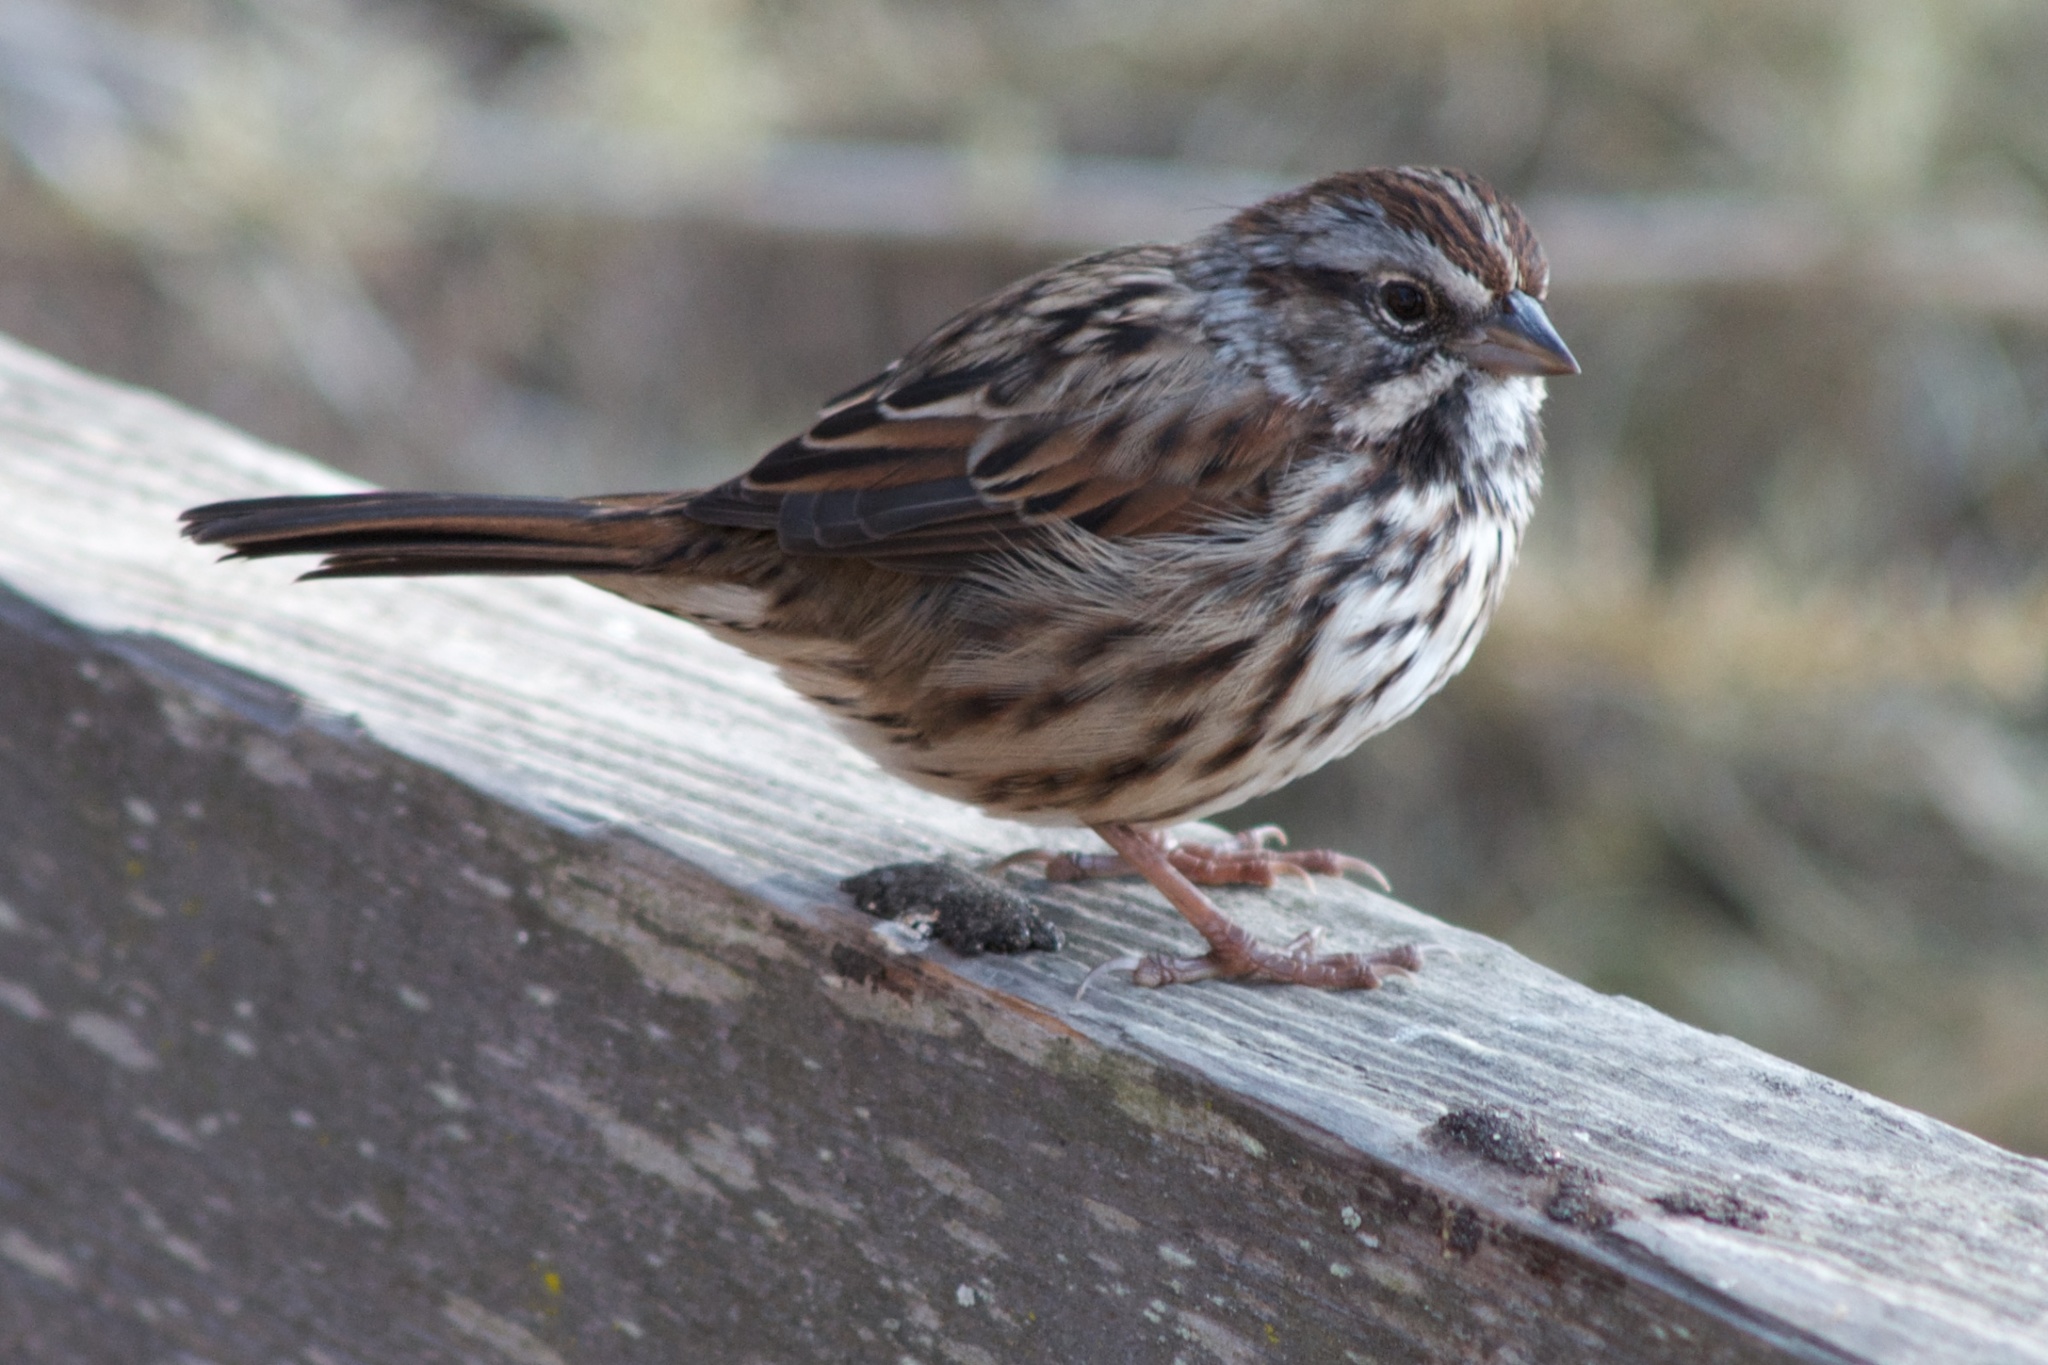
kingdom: Animalia
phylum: Chordata
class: Aves
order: Passeriformes
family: Passerellidae
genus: Melospiza
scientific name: Melospiza melodia
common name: Song sparrow
